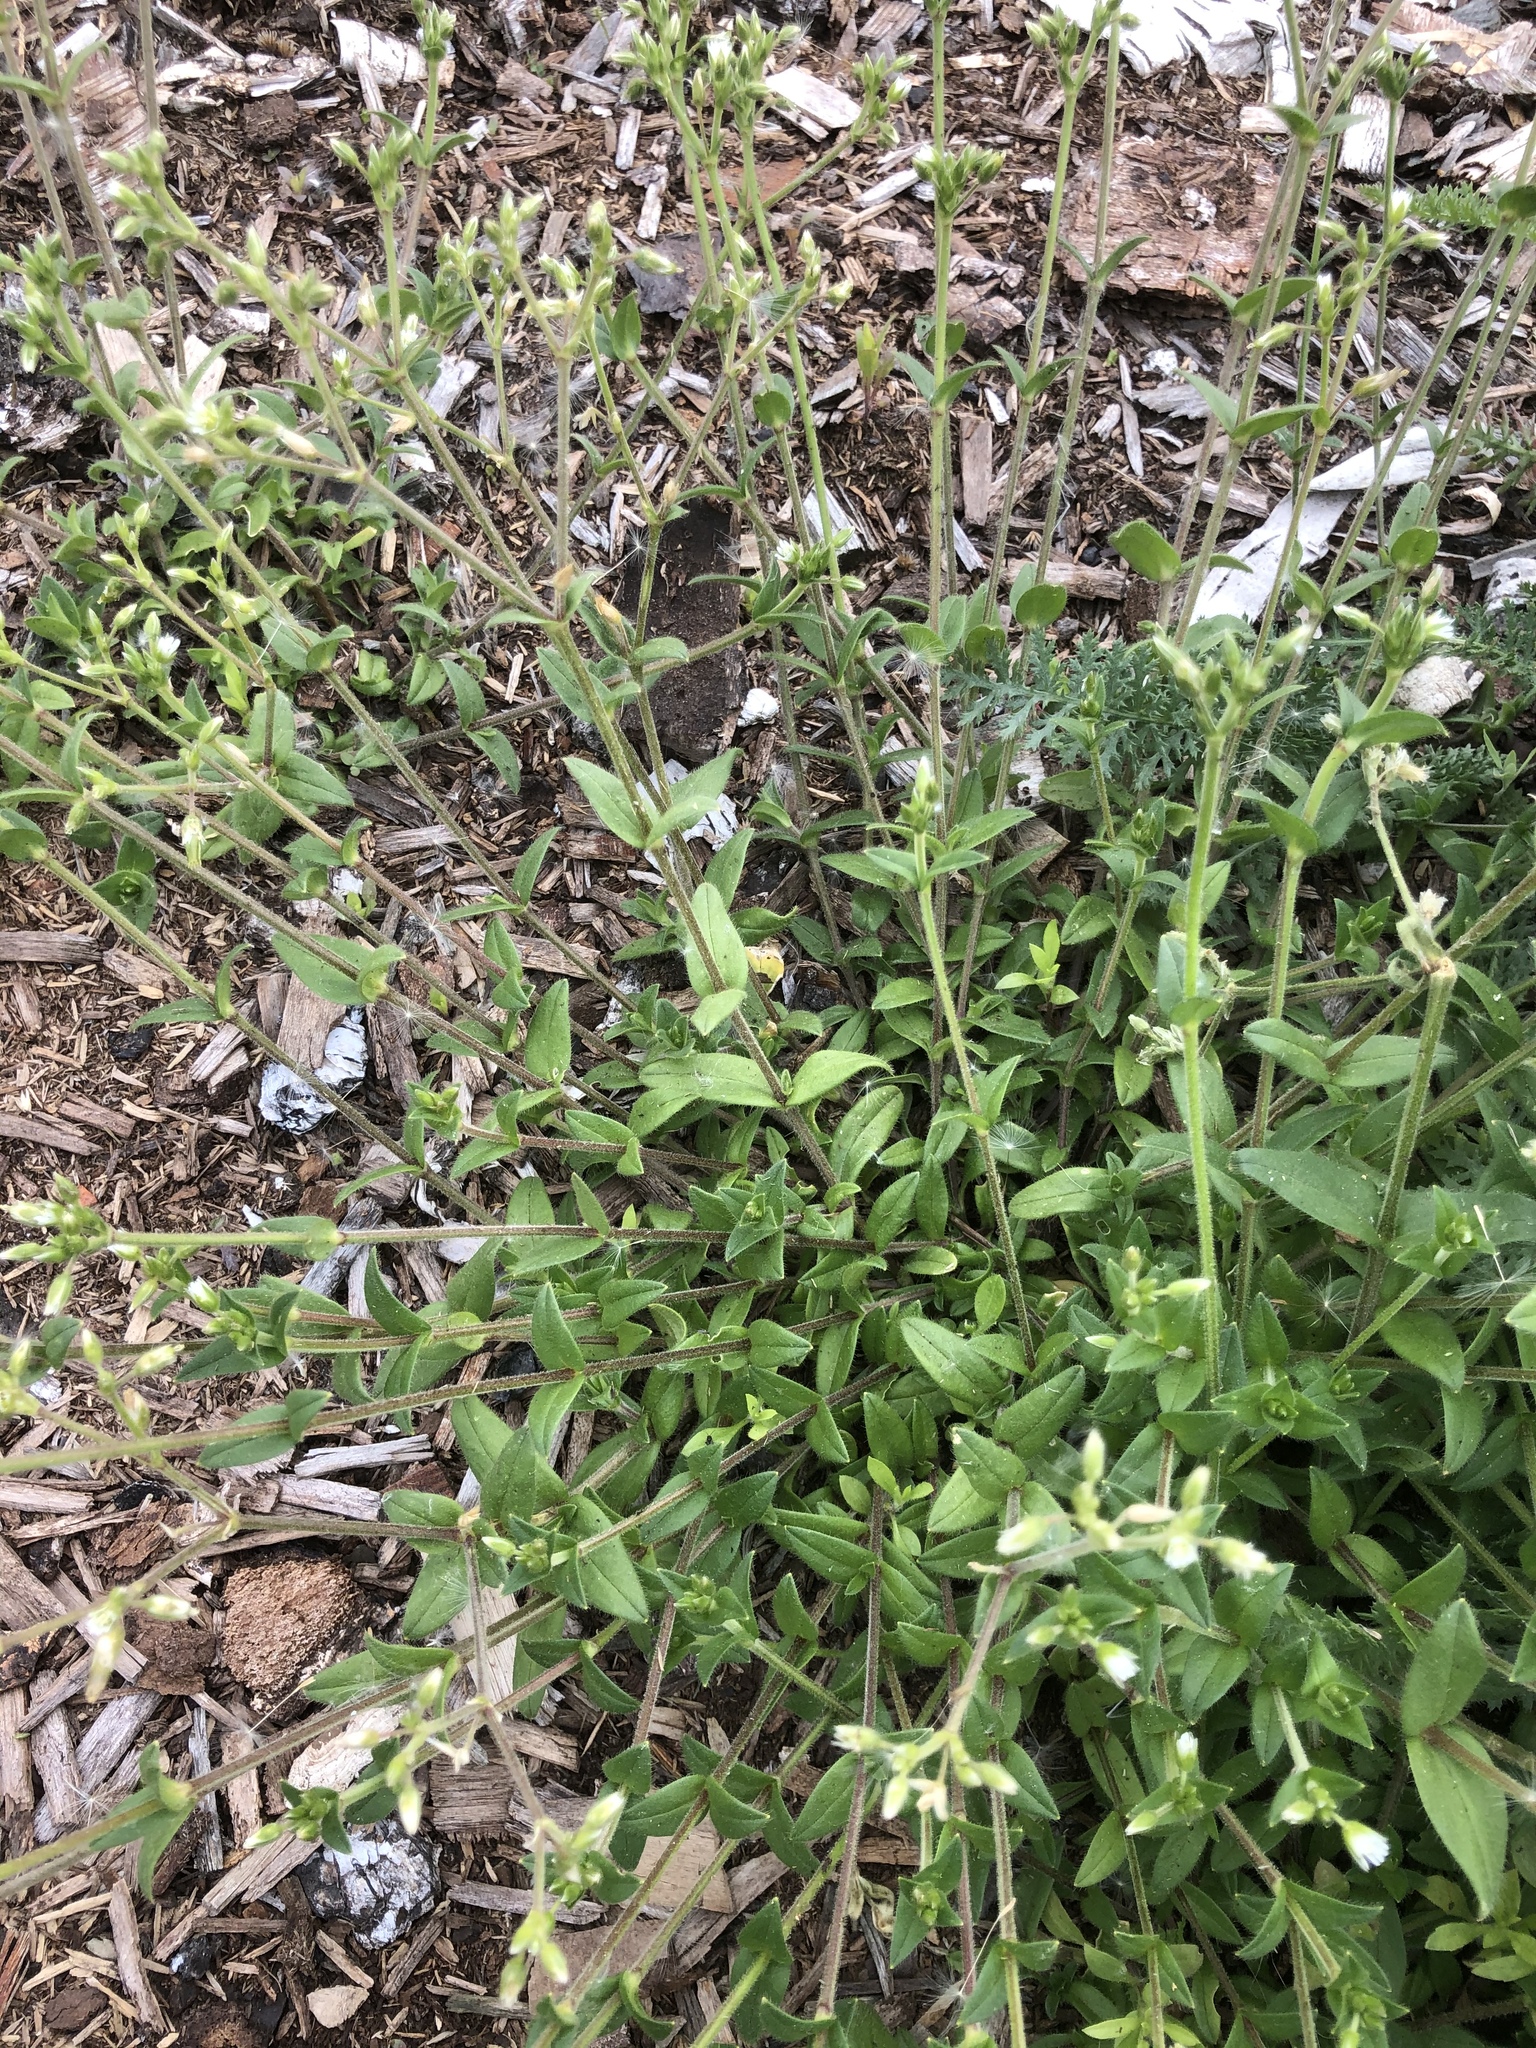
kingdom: Plantae
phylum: Tracheophyta
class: Magnoliopsida
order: Caryophyllales
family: Caryophyllaceae
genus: Cerastium
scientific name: Cerastium holosteoides
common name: Big chickweed
